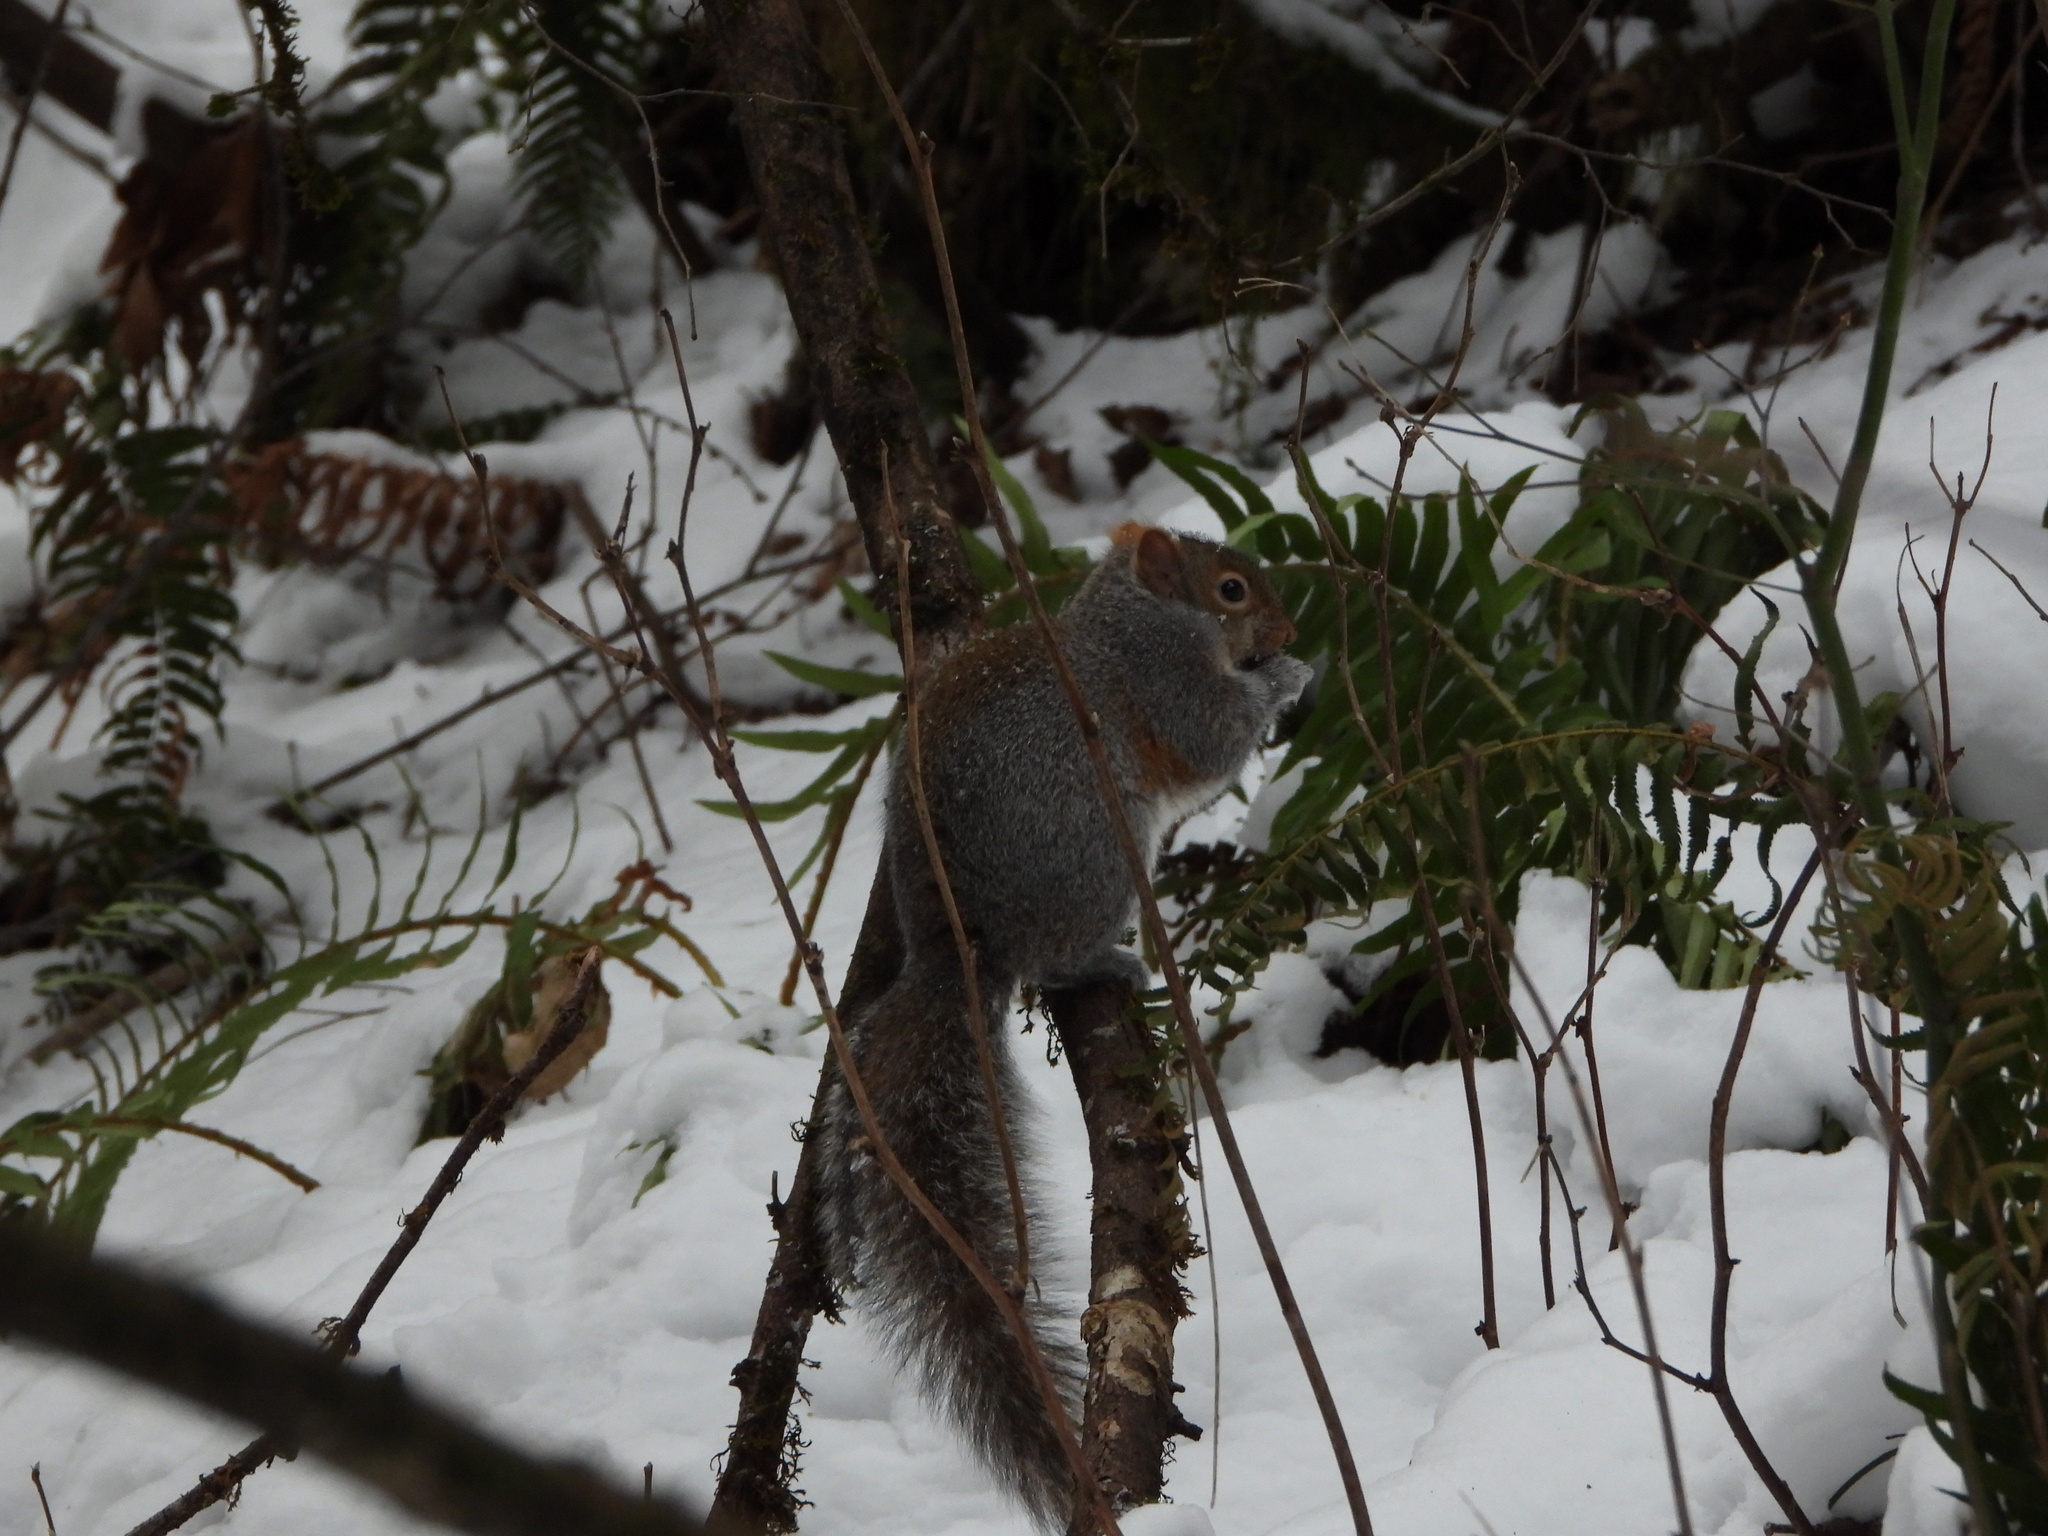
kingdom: Animalia
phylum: Chordata
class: Mammalia
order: Rodentia
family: Sciuridae
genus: Sciurus
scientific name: Sciurus carolinensis
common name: Eastern gray squirrel
